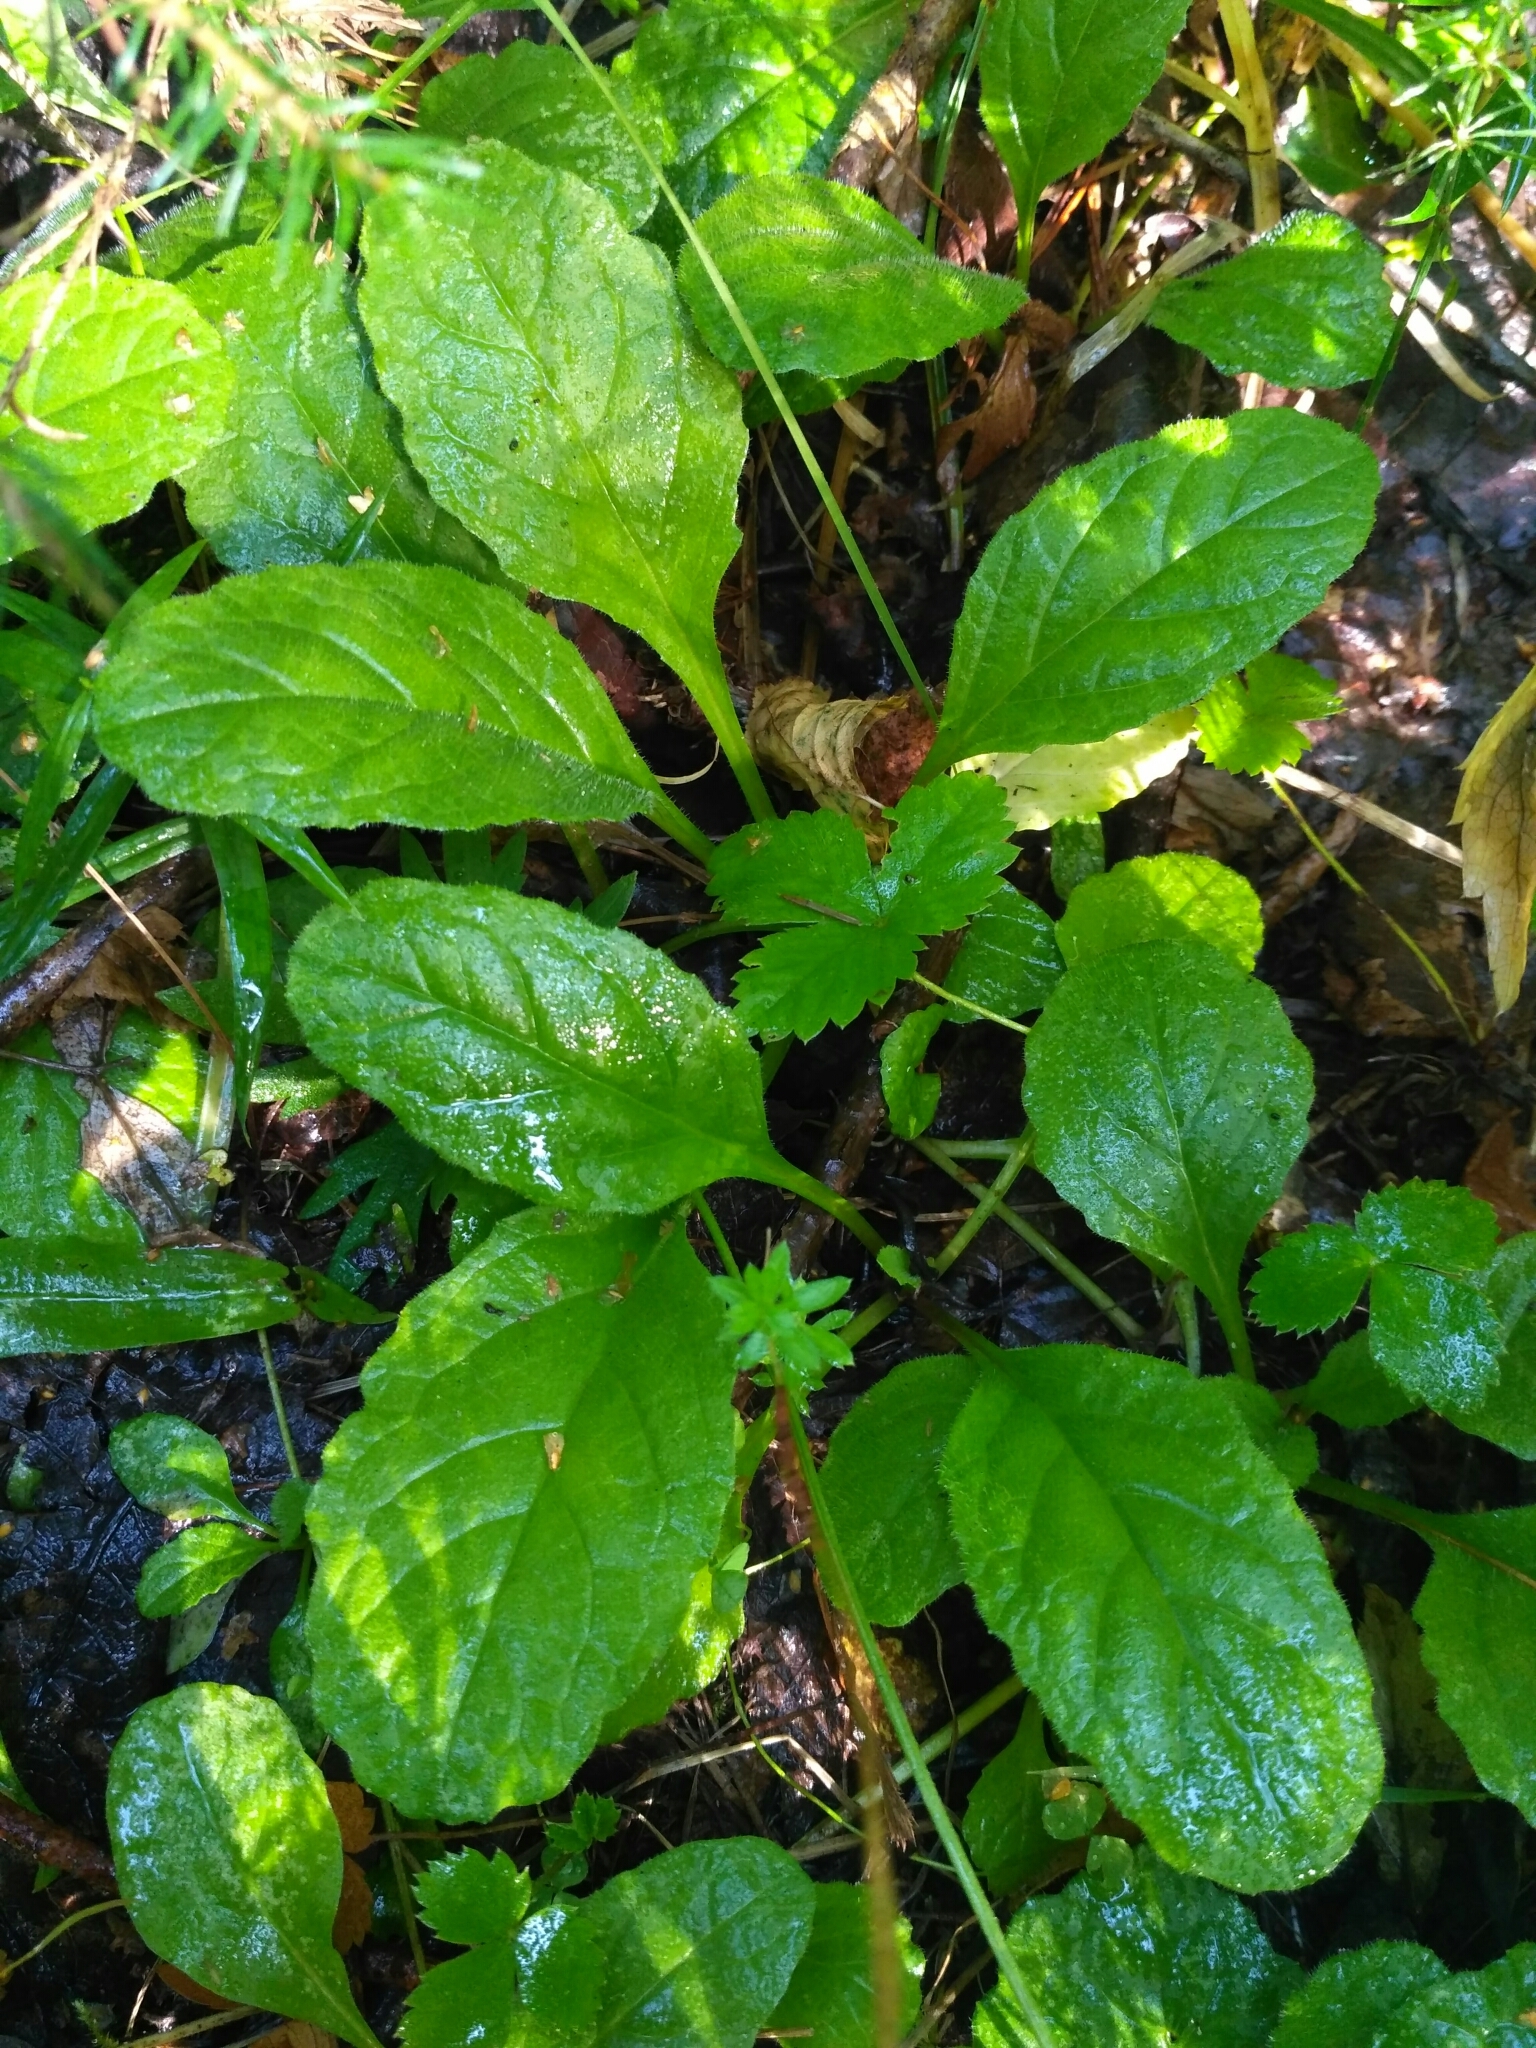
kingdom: Plantae
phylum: Tracheophyta
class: Magnoliopsida
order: Lamiales
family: Lamiaceae
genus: Ajuga
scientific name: Ajuga reptans
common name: Bugle
